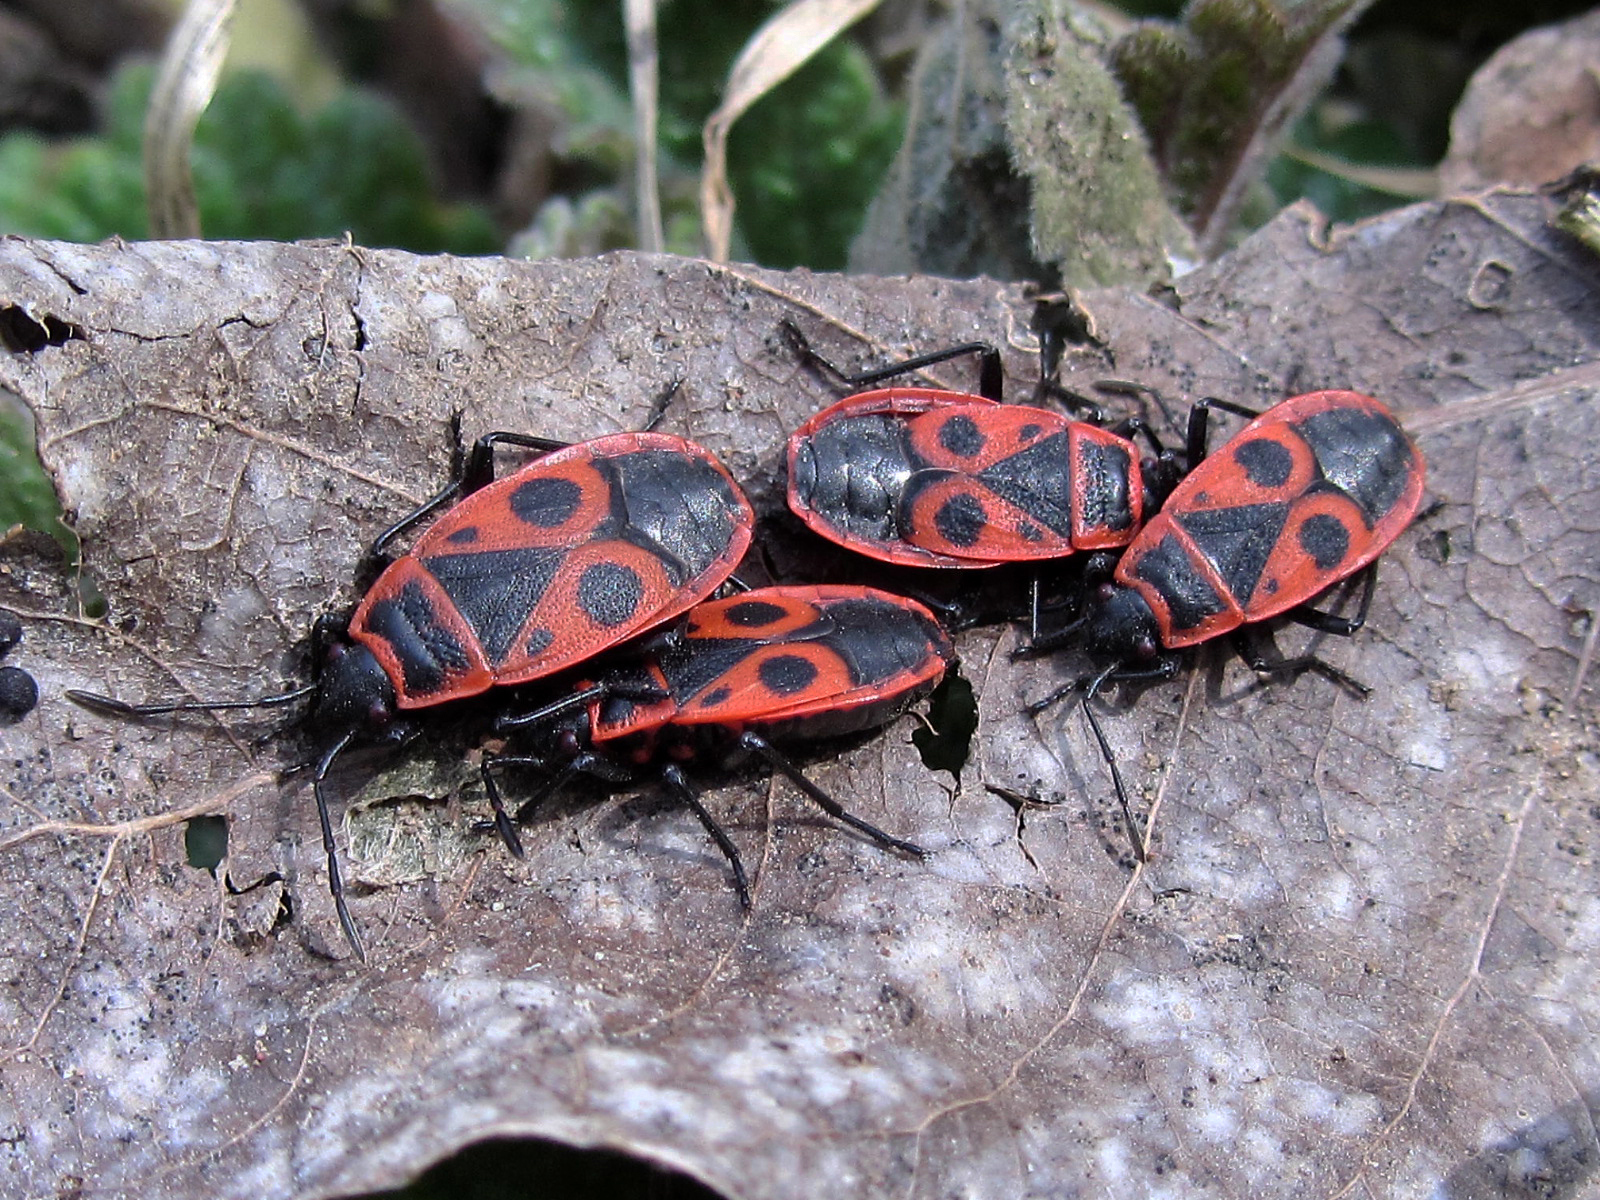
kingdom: Animalia
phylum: Arthropoda
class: Insecta
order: Hemiptera
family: Pyrrhocoridae
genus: Pyrrhocoris
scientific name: Pyrrhocoris apterus
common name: Firebug
